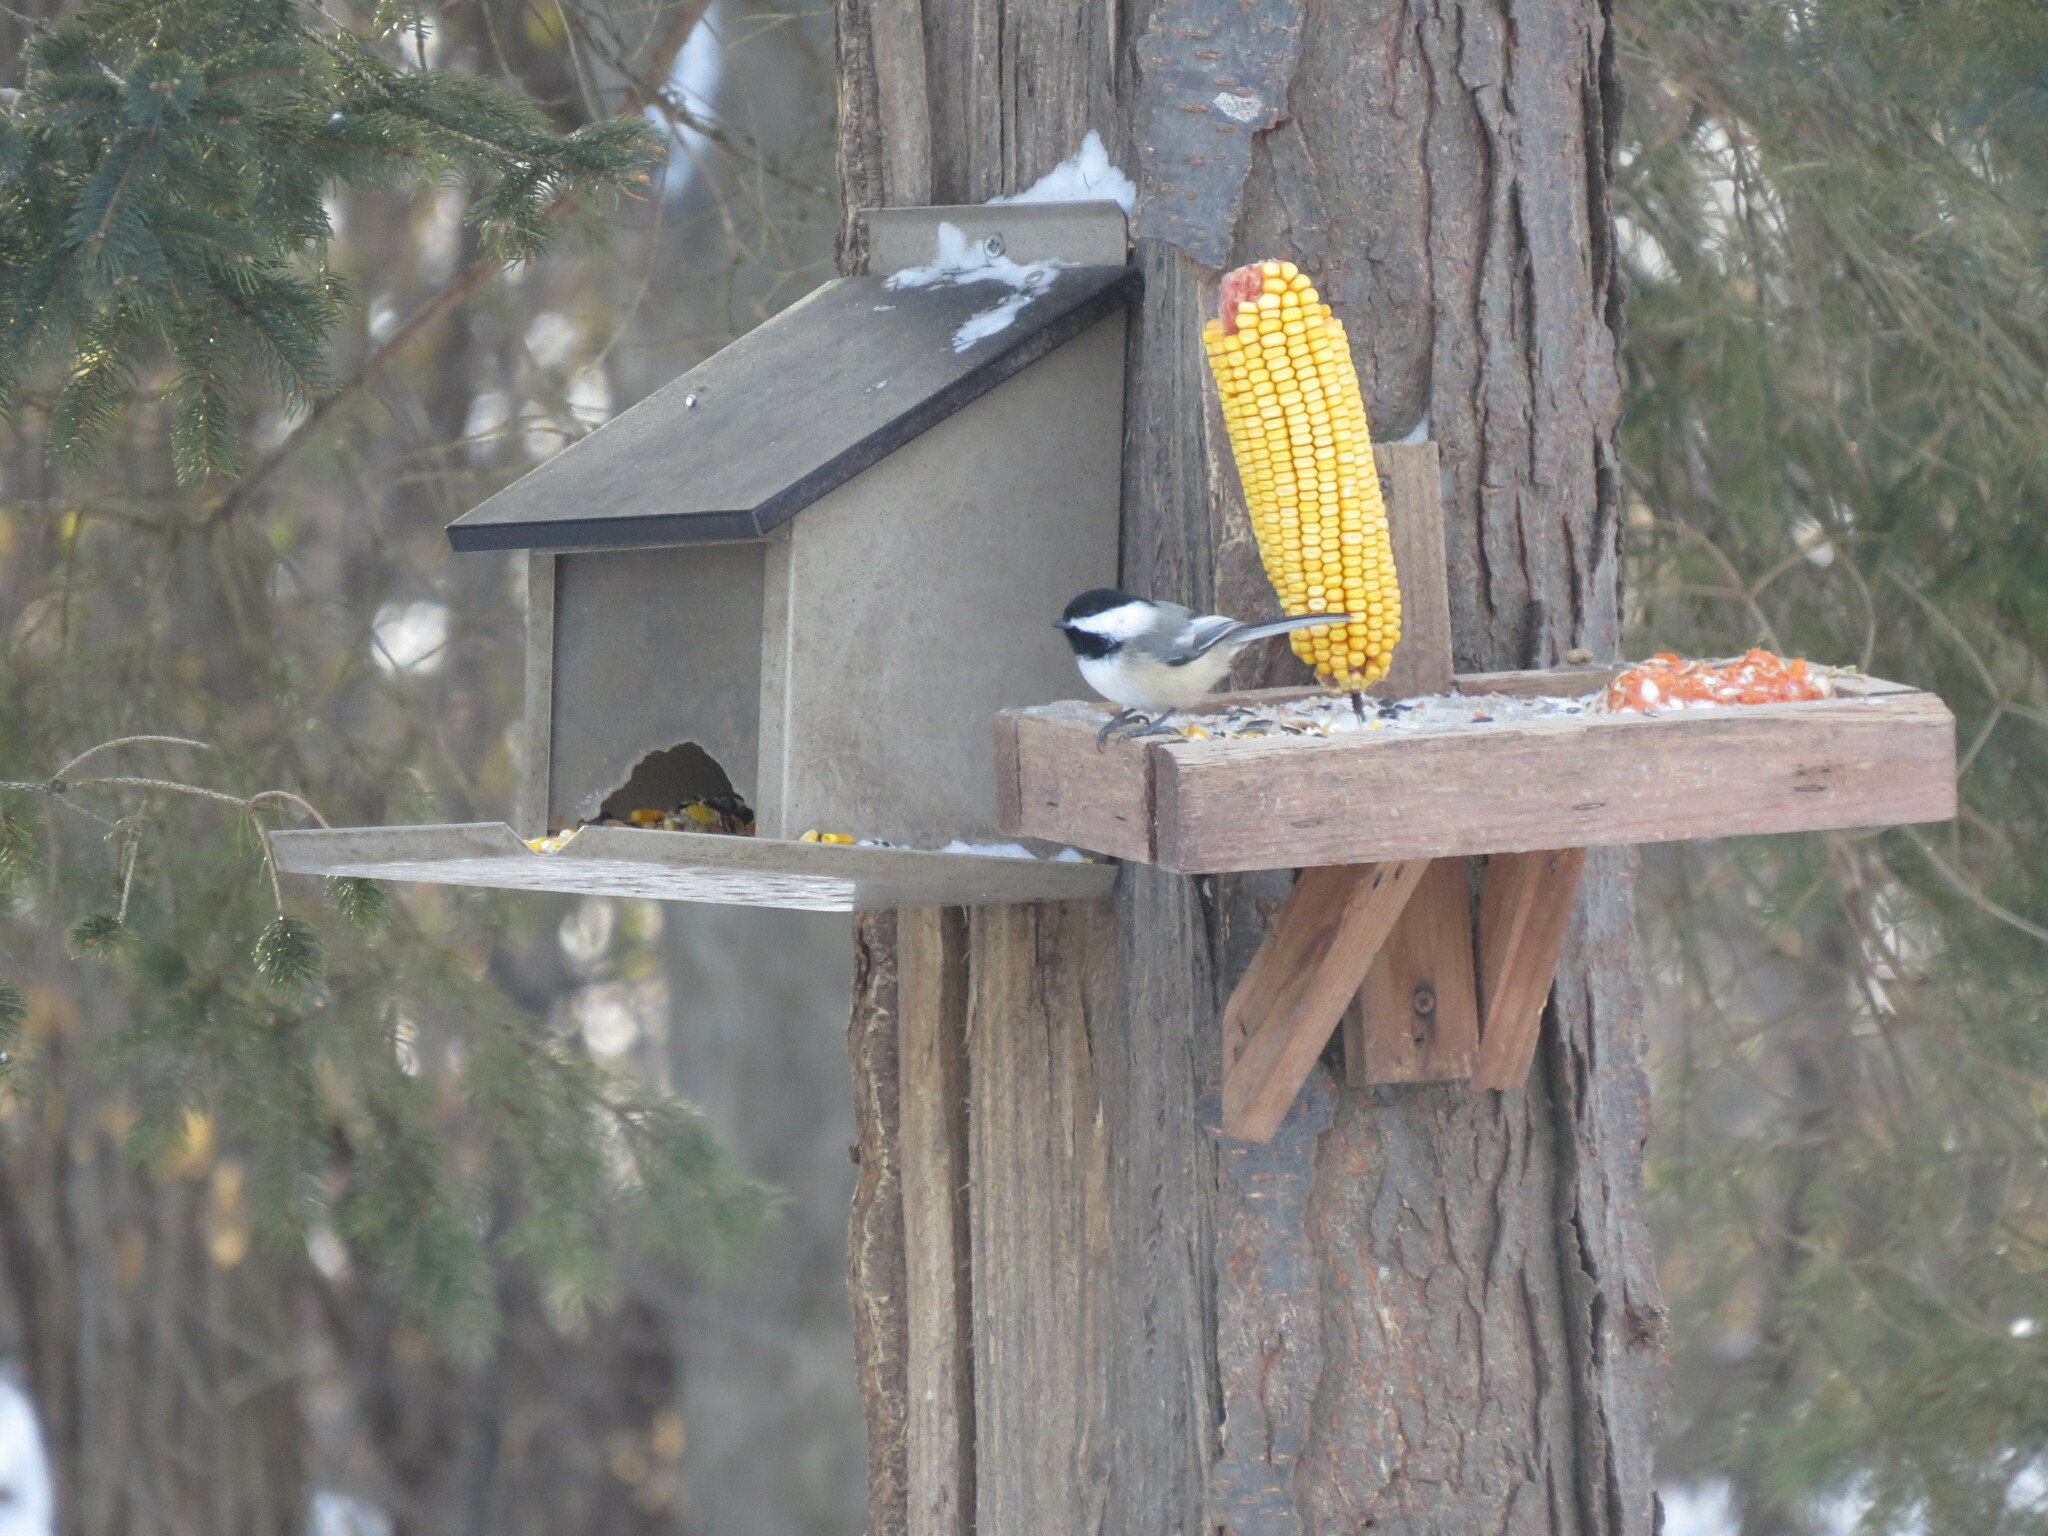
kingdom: Animalia
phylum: Chordata
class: Aves
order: Passeriformes
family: Paridae
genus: Poecile
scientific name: Poecile atricapillus
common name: Black-capped chickadee
